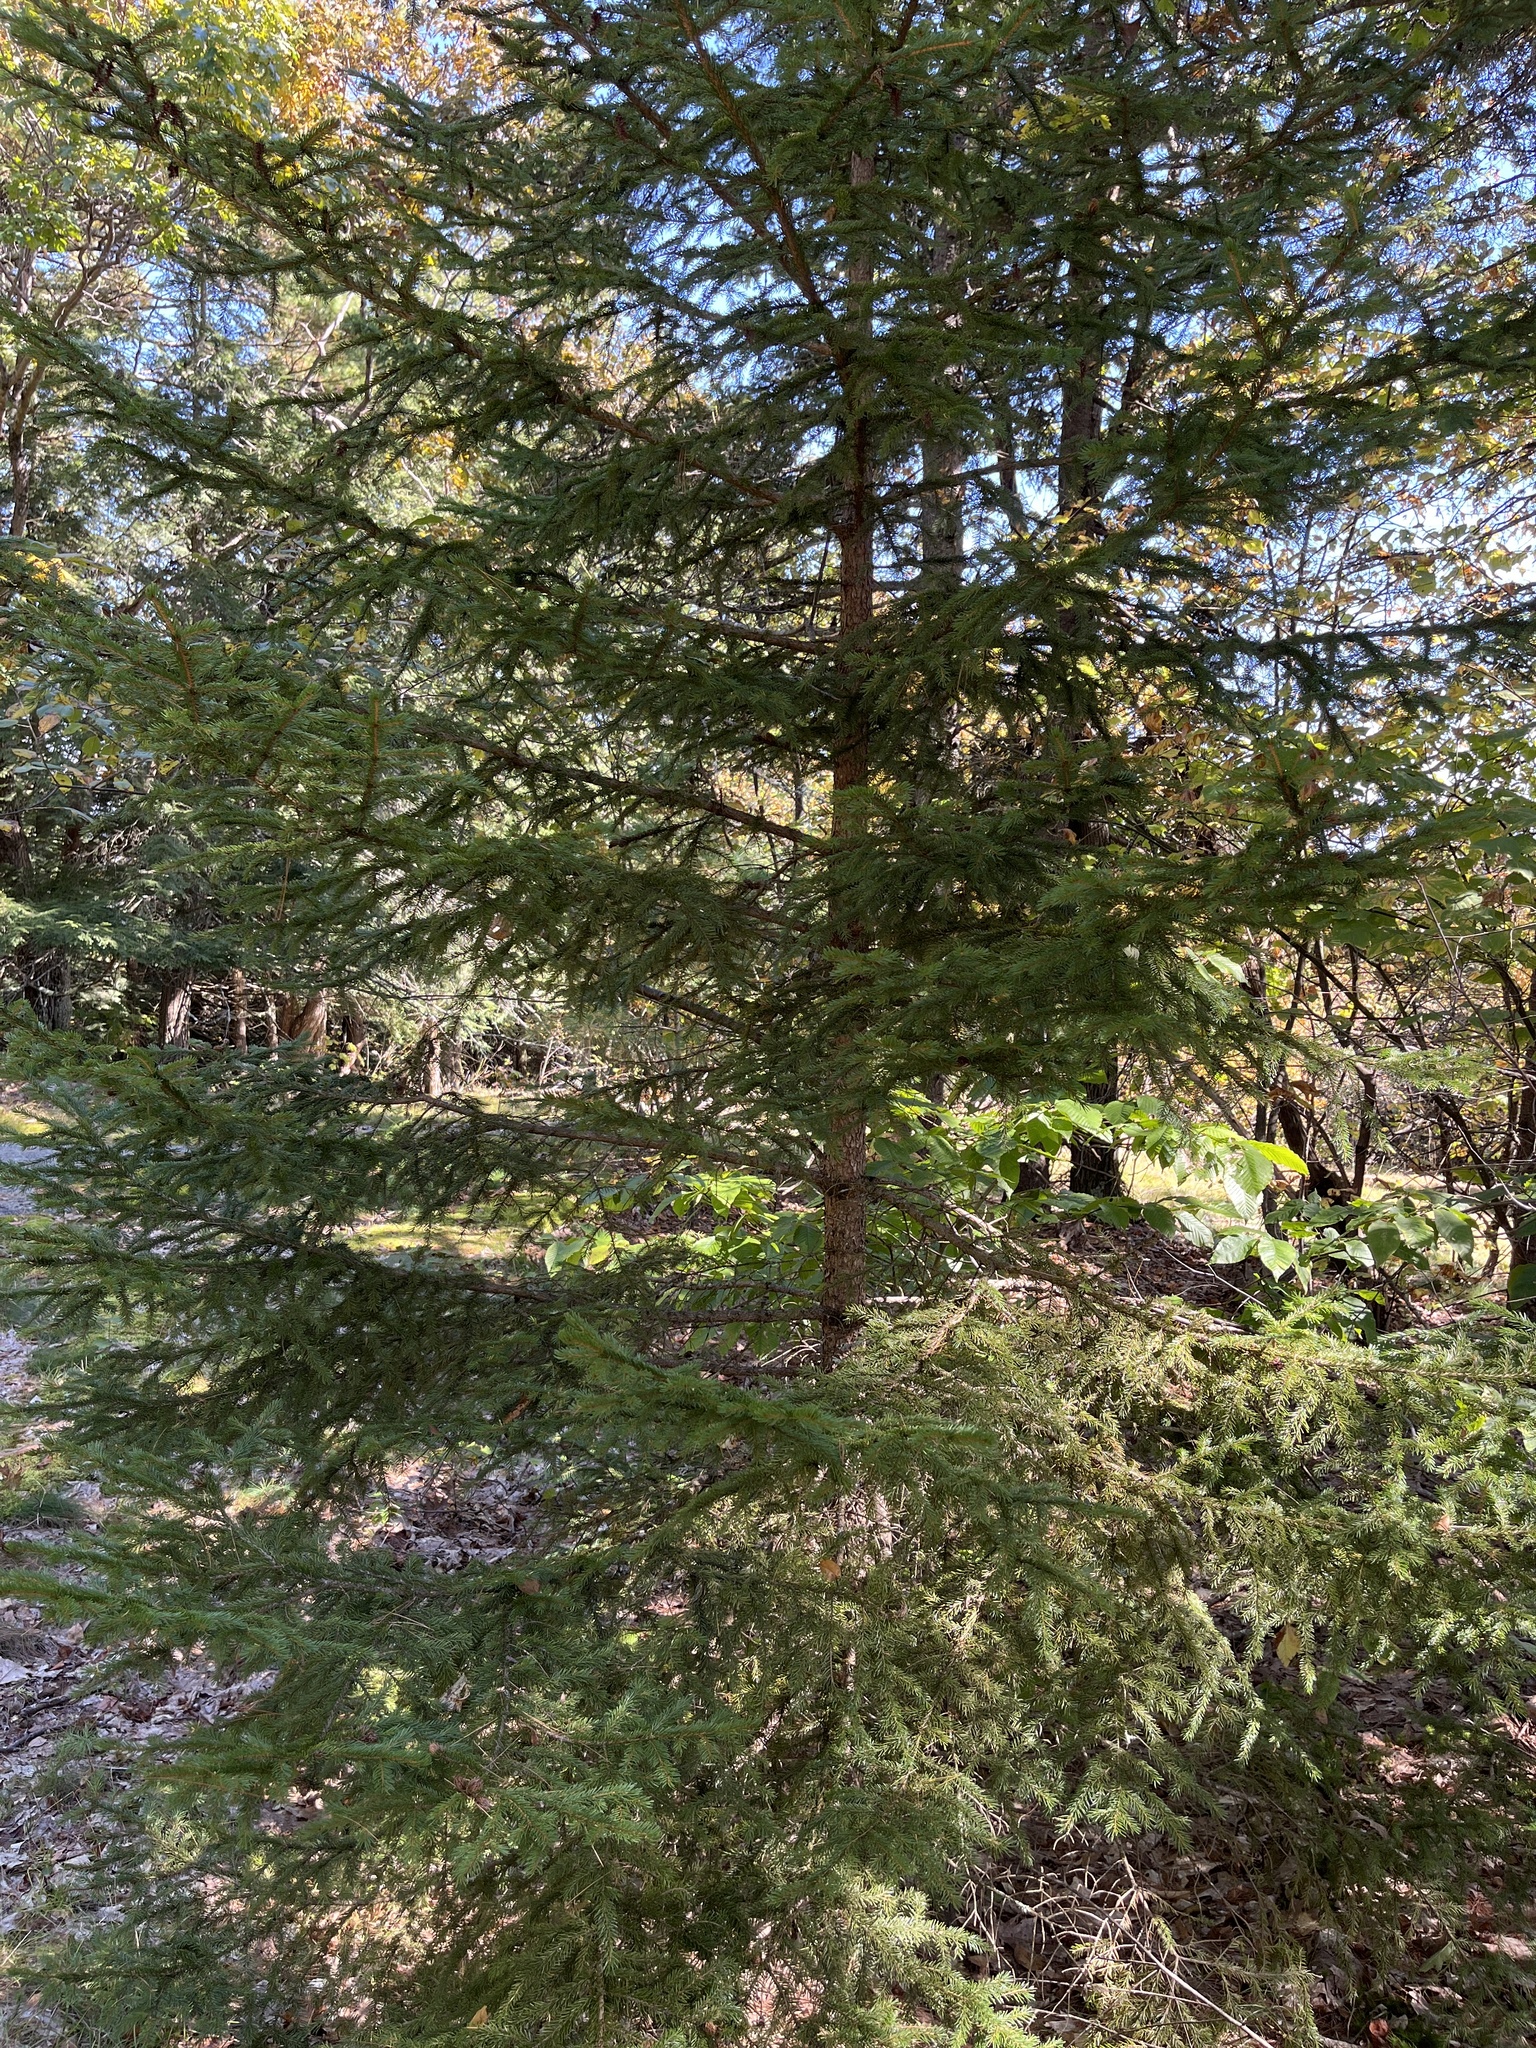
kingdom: Plantae
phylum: Tracheophyta
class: Pinopsida
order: Pinales
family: Pinaceae
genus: Picea
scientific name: Picea rubens
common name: Red spruce
